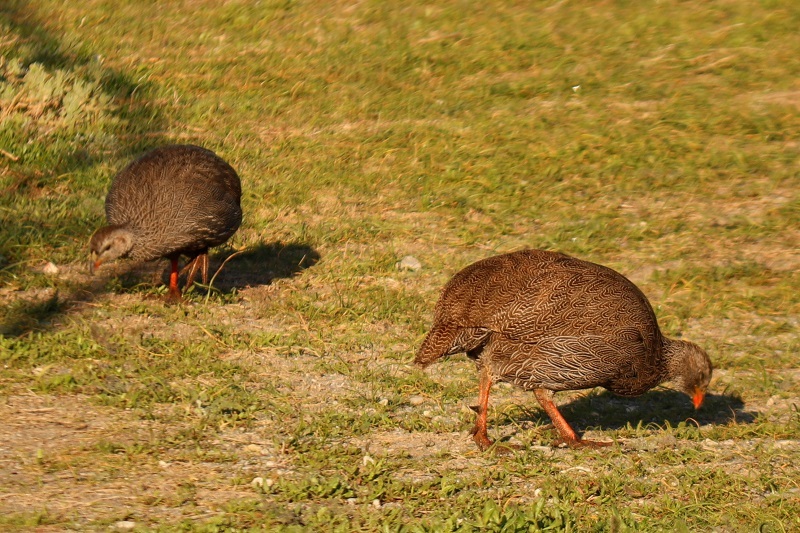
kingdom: Animalia
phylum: Chordata
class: Aves
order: Galliformes
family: Phasianidae
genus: Pternistis
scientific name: Pternistis capensis
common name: Cape spurfowl
